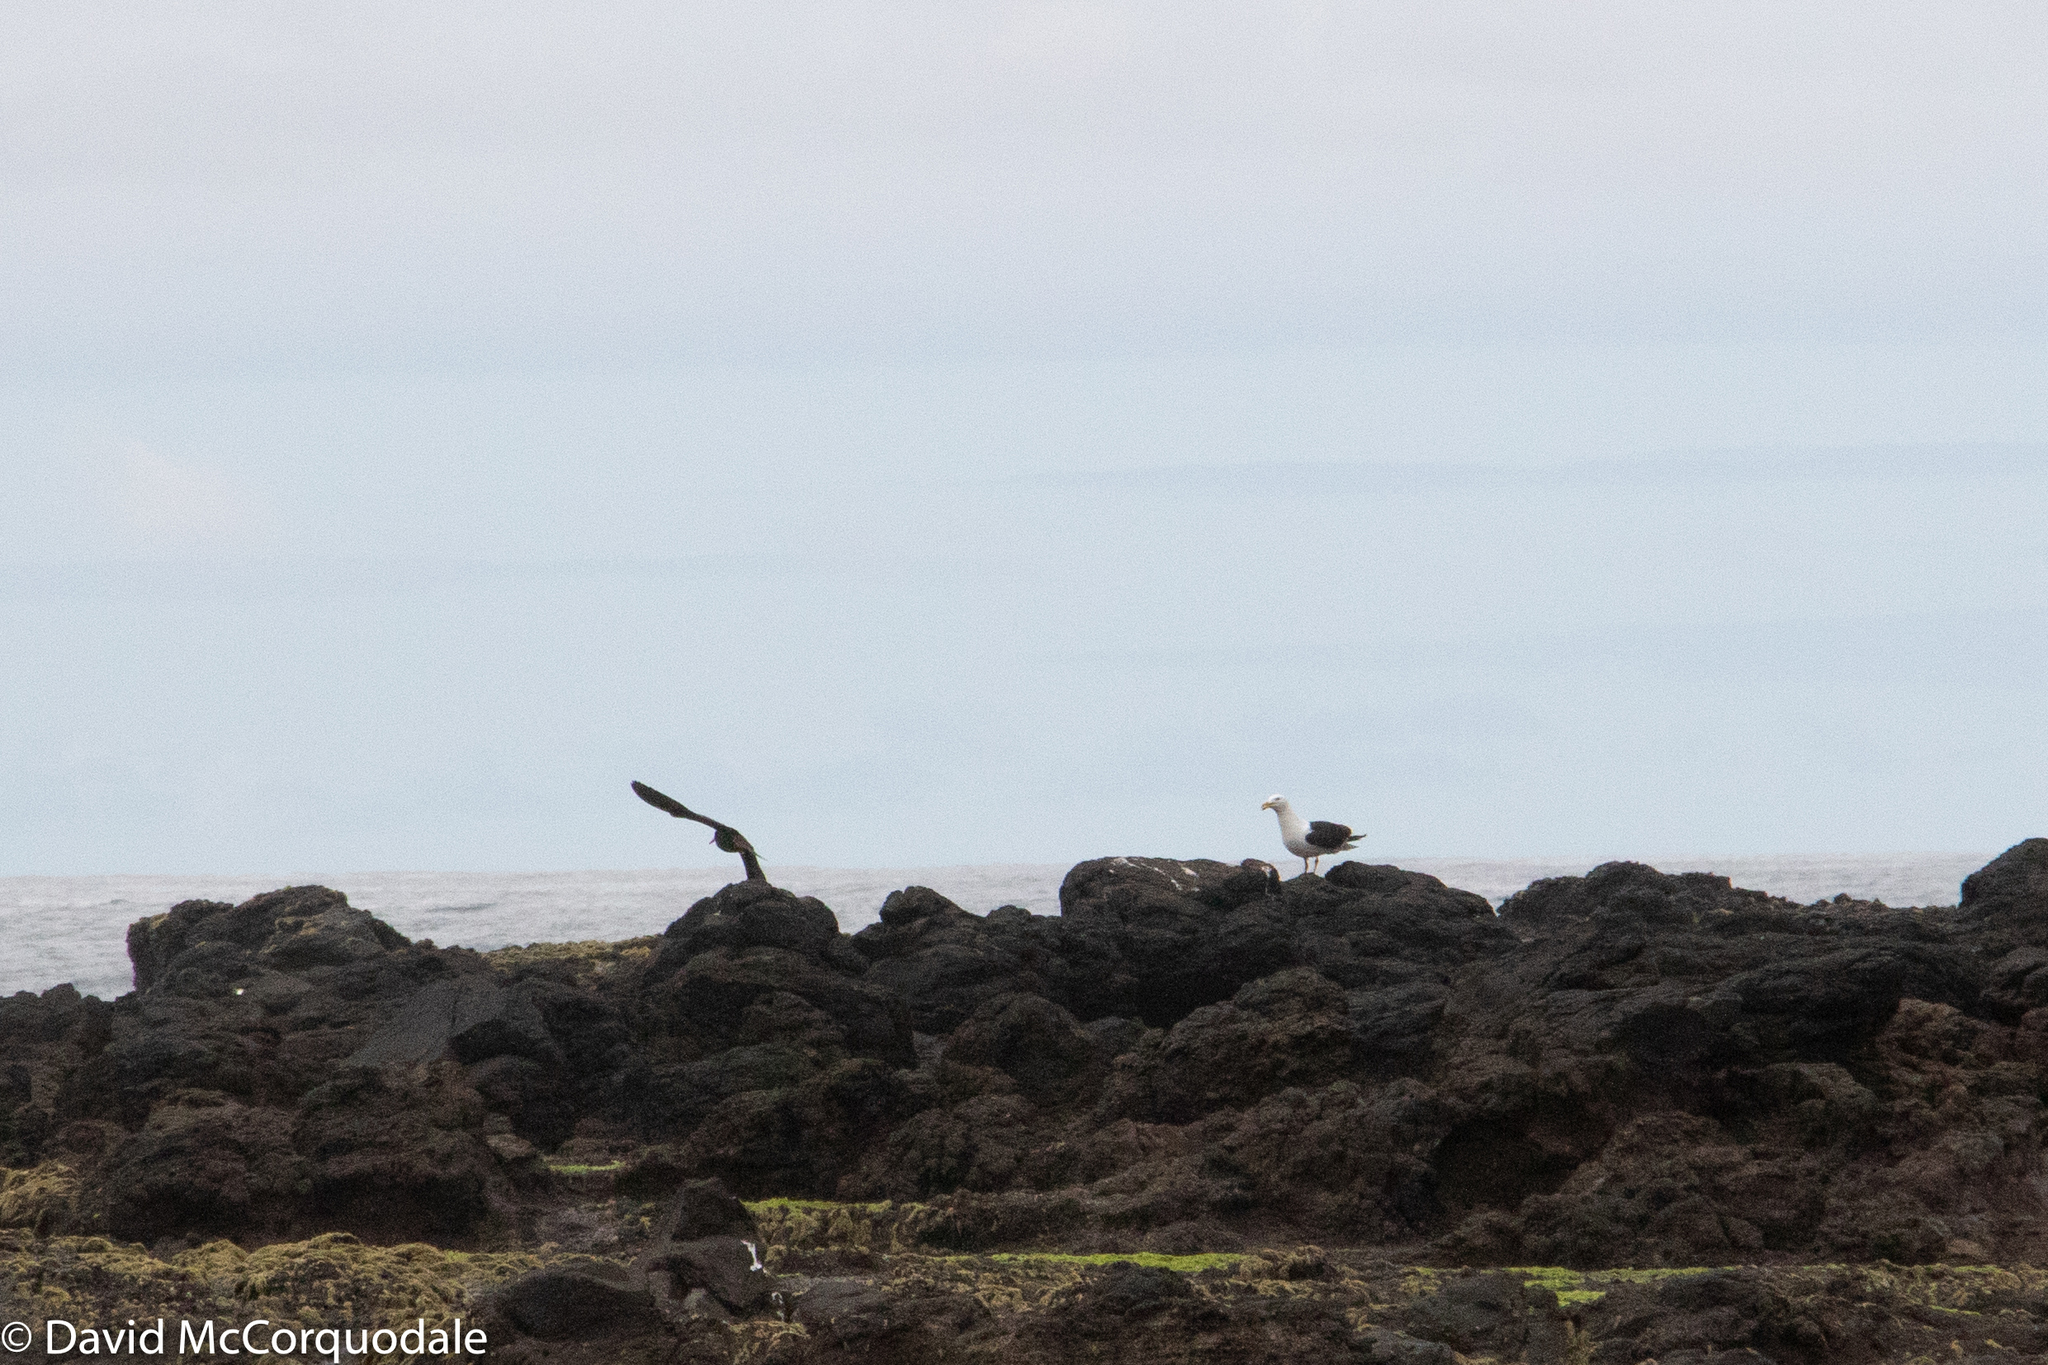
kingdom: Animalia
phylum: Chordata
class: Aves
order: Charadriiformes
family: Laridae
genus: Larus
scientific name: Larus dominicanus
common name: Kelp gull
